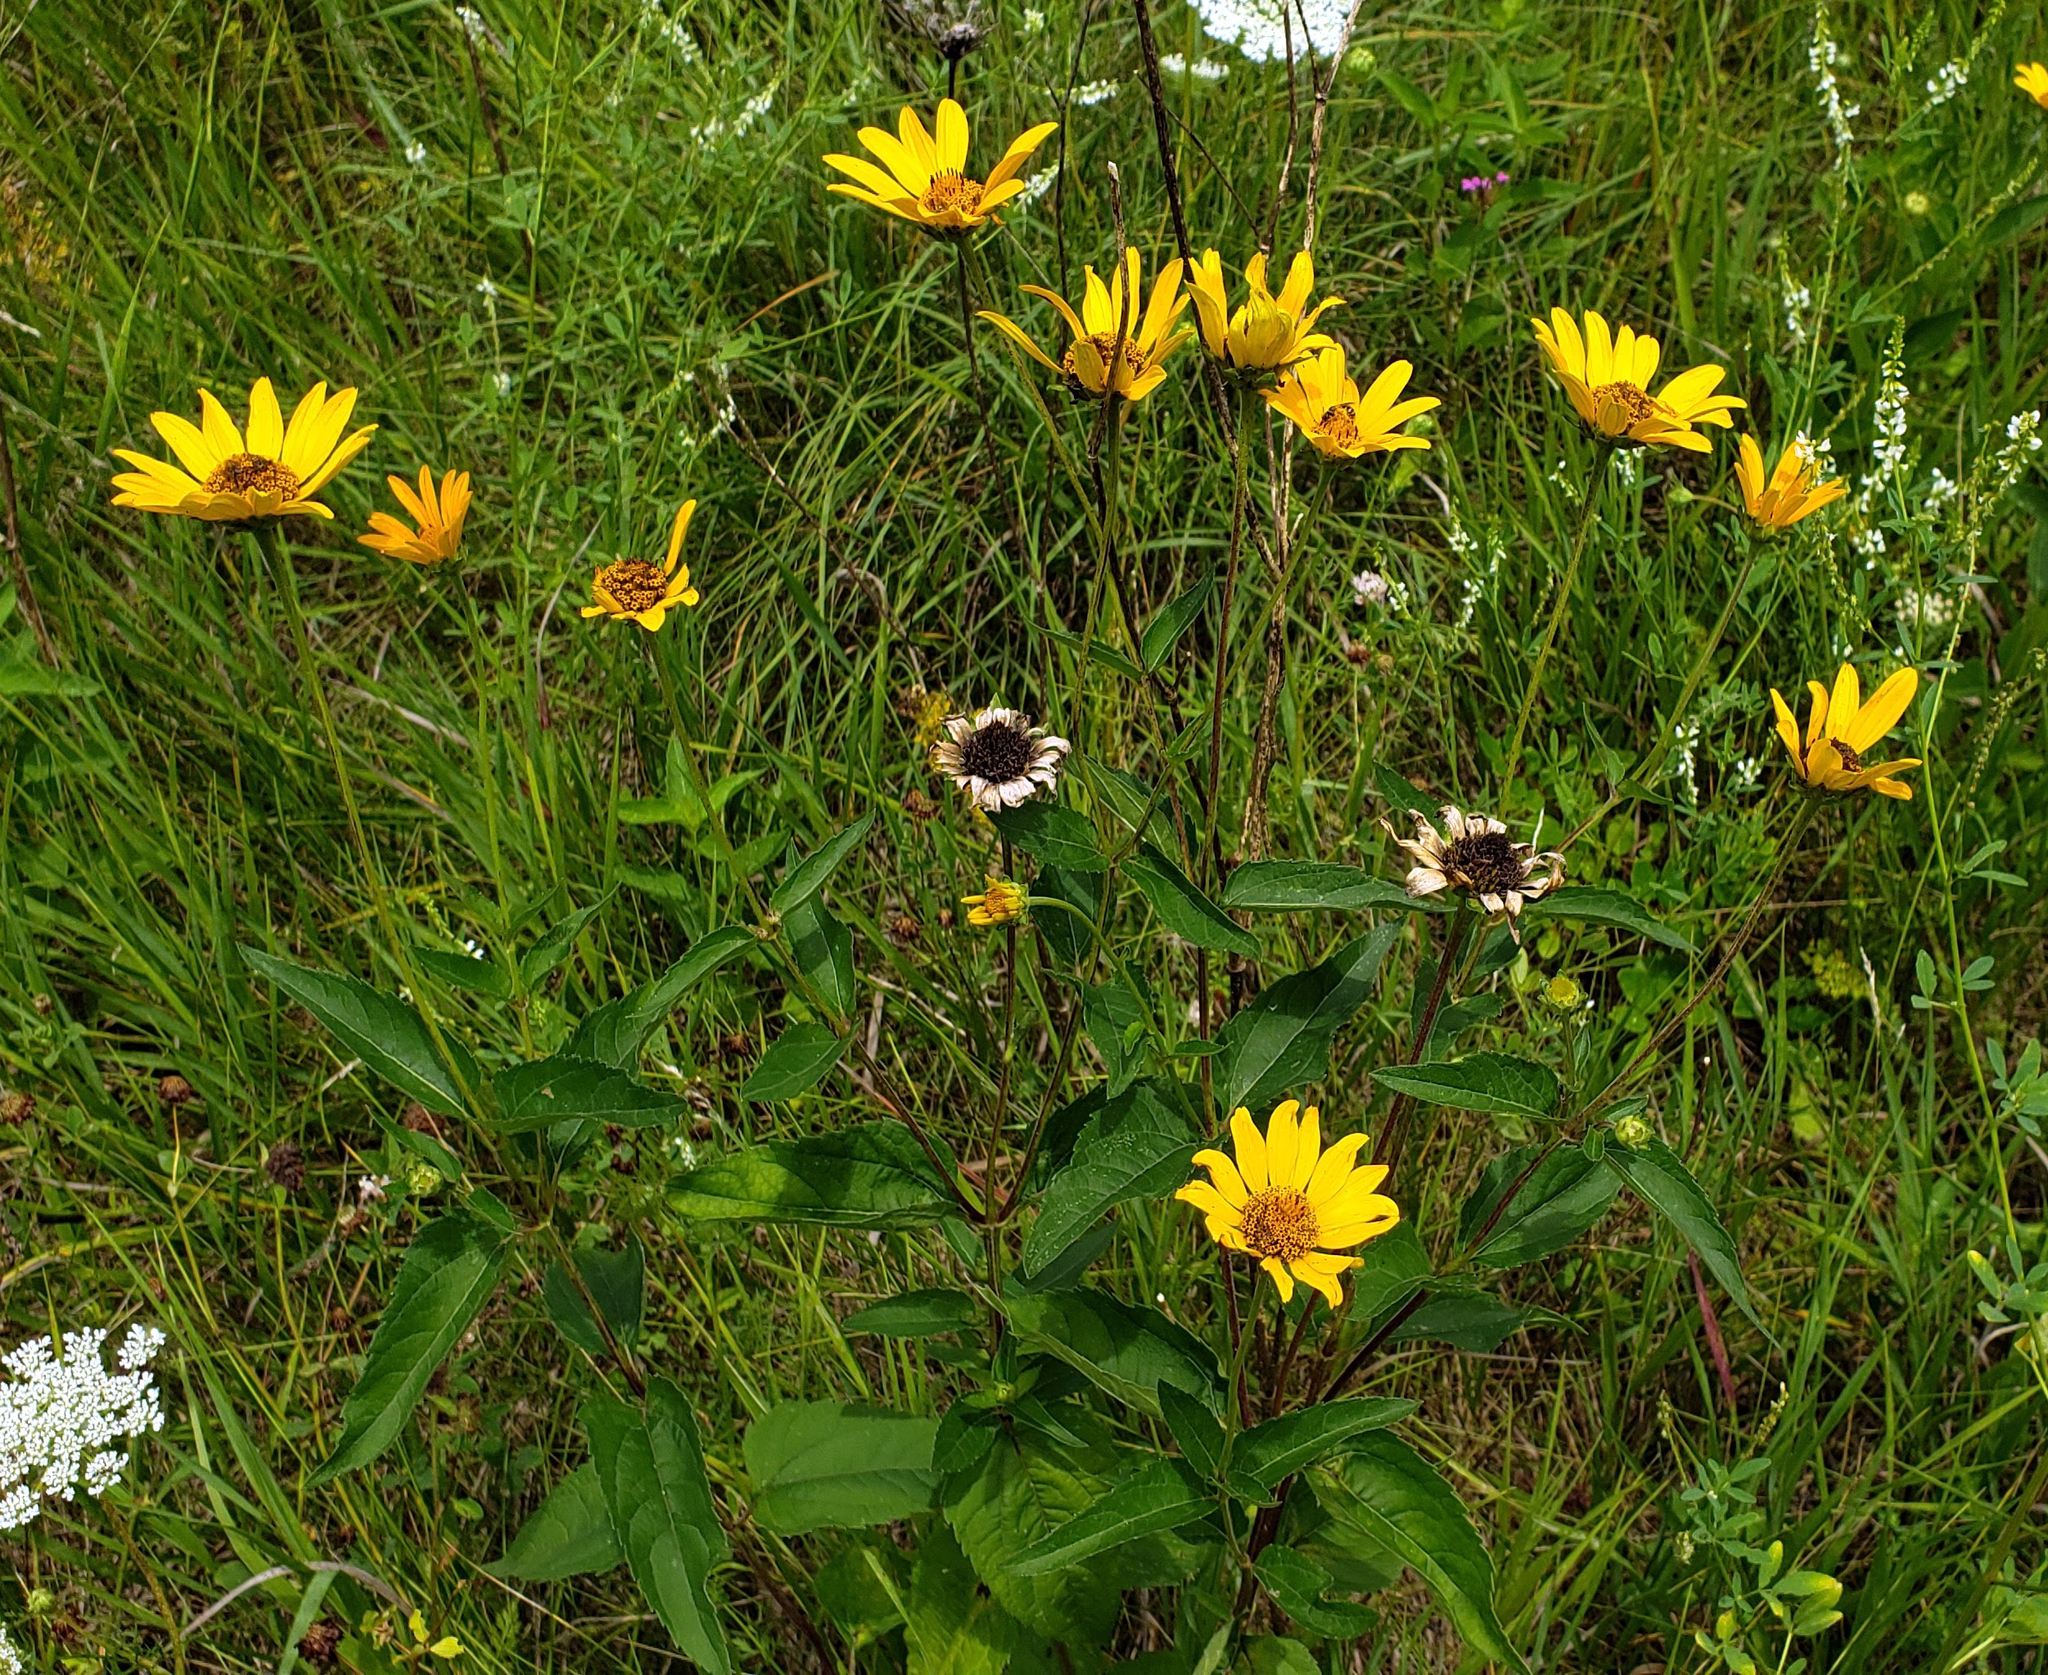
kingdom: Plantae
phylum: Tracheophyta
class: Magnoliopsida
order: Asterales
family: Asteraceae
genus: Heliopsis
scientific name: Heliopsis helianthoides
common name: False sunflower
